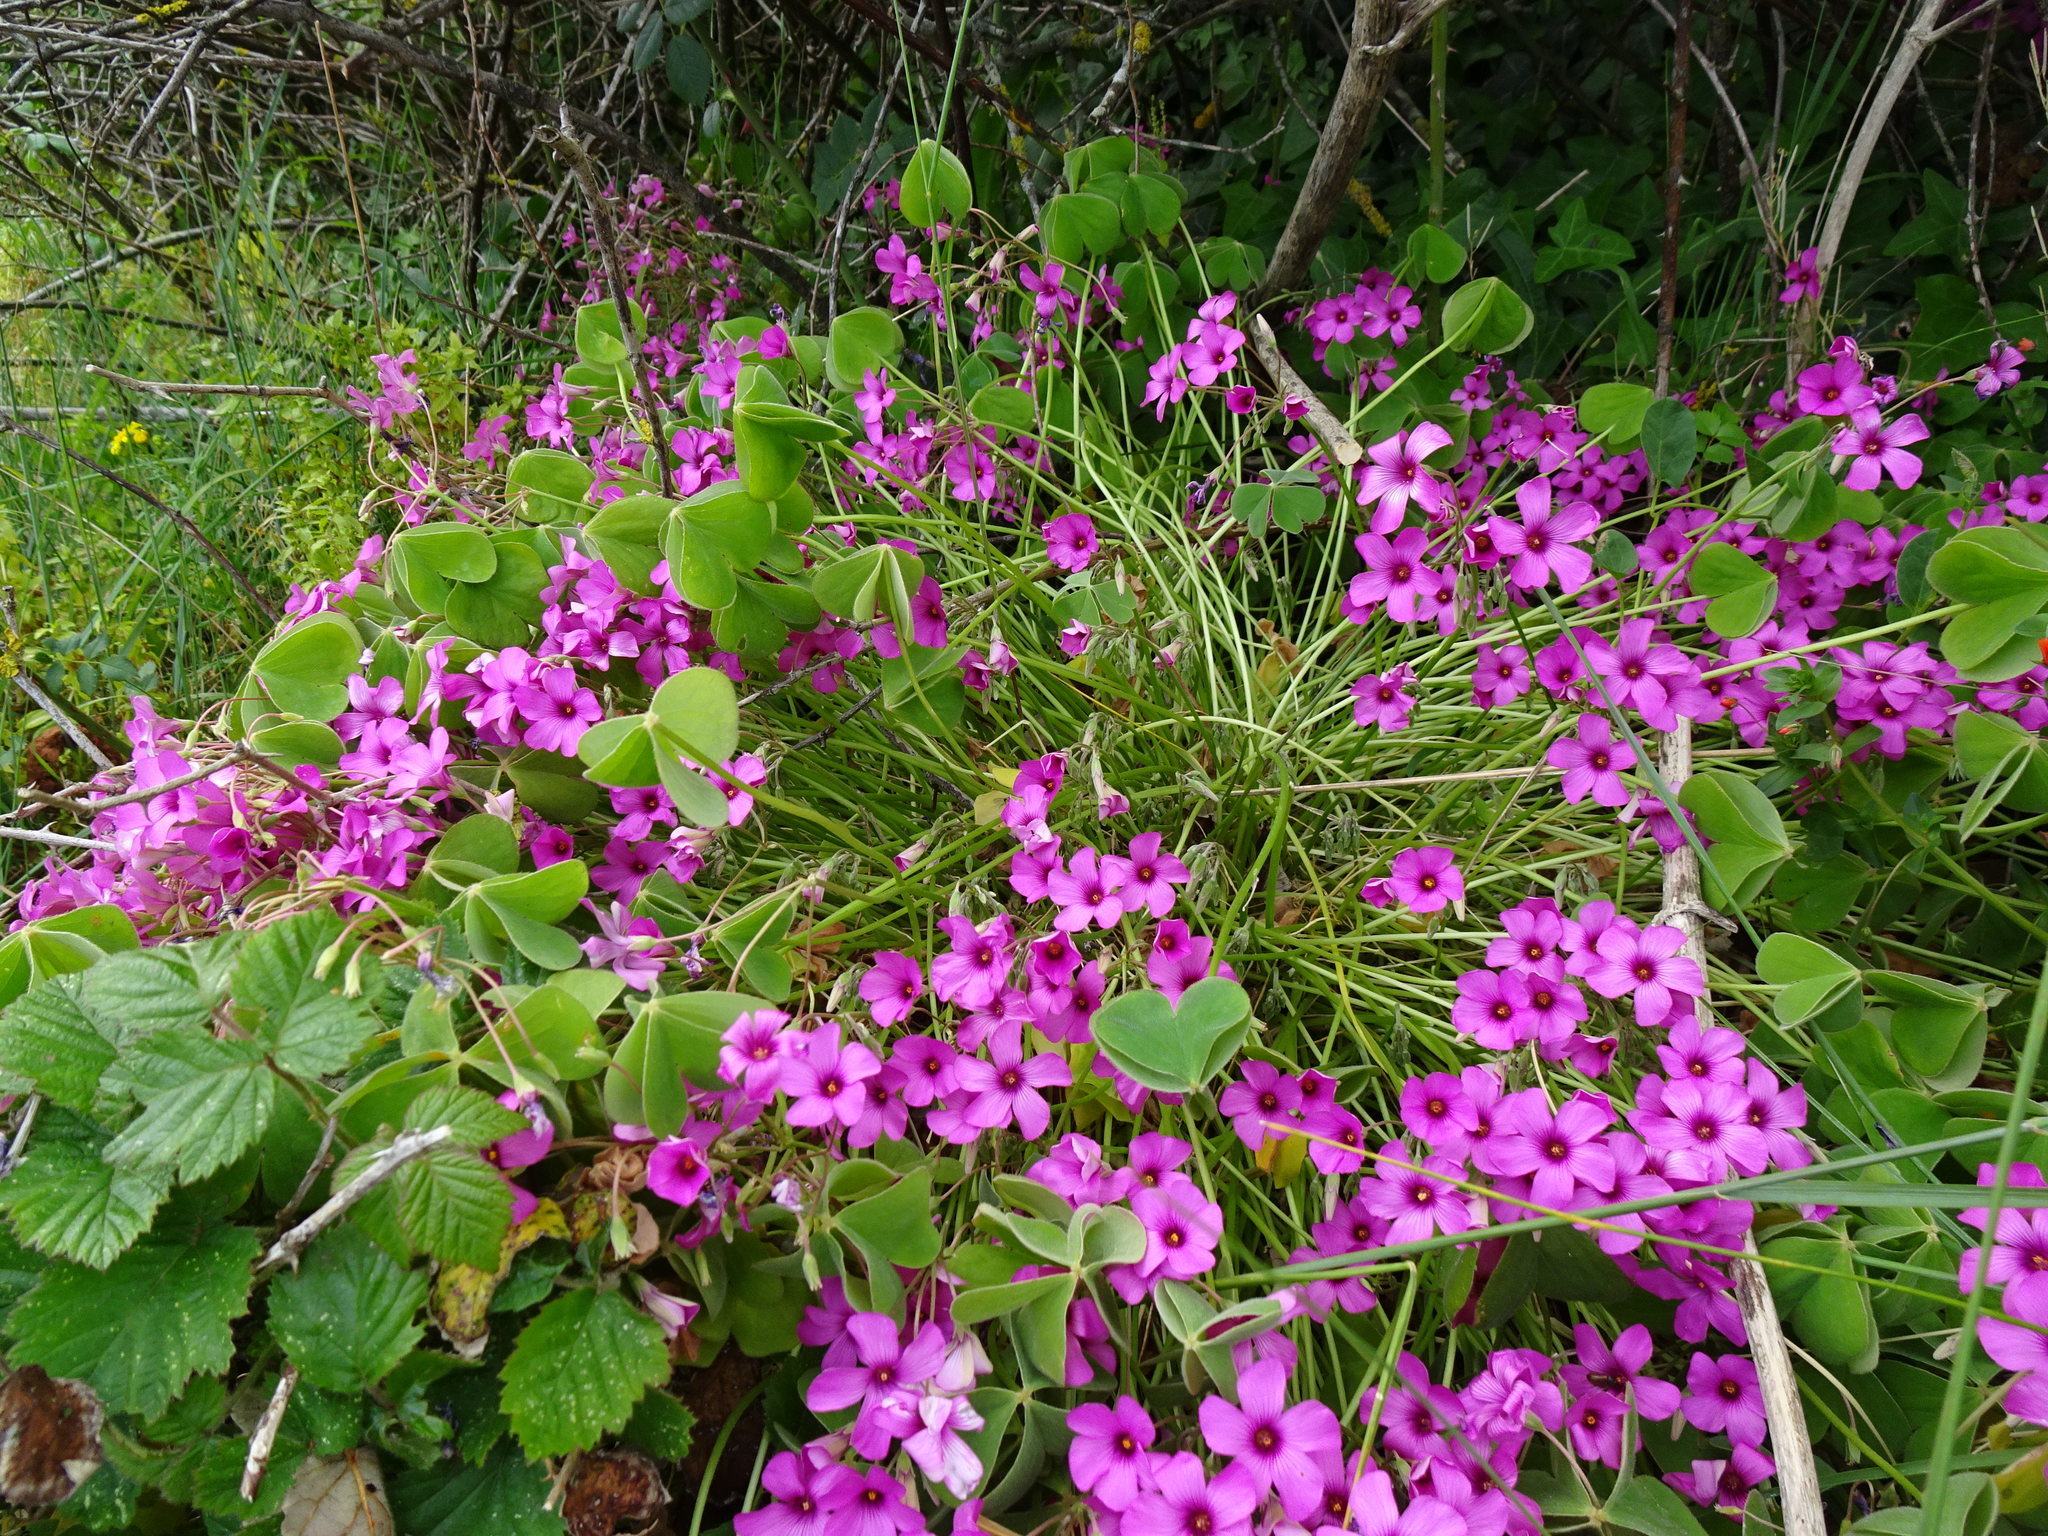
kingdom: Plantae
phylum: Tracheophyta
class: Magnoliopsida
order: Oxalidales
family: Oxalidaceae
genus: Oxalis
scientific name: Oxalis articulata
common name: Pink-sorrel
